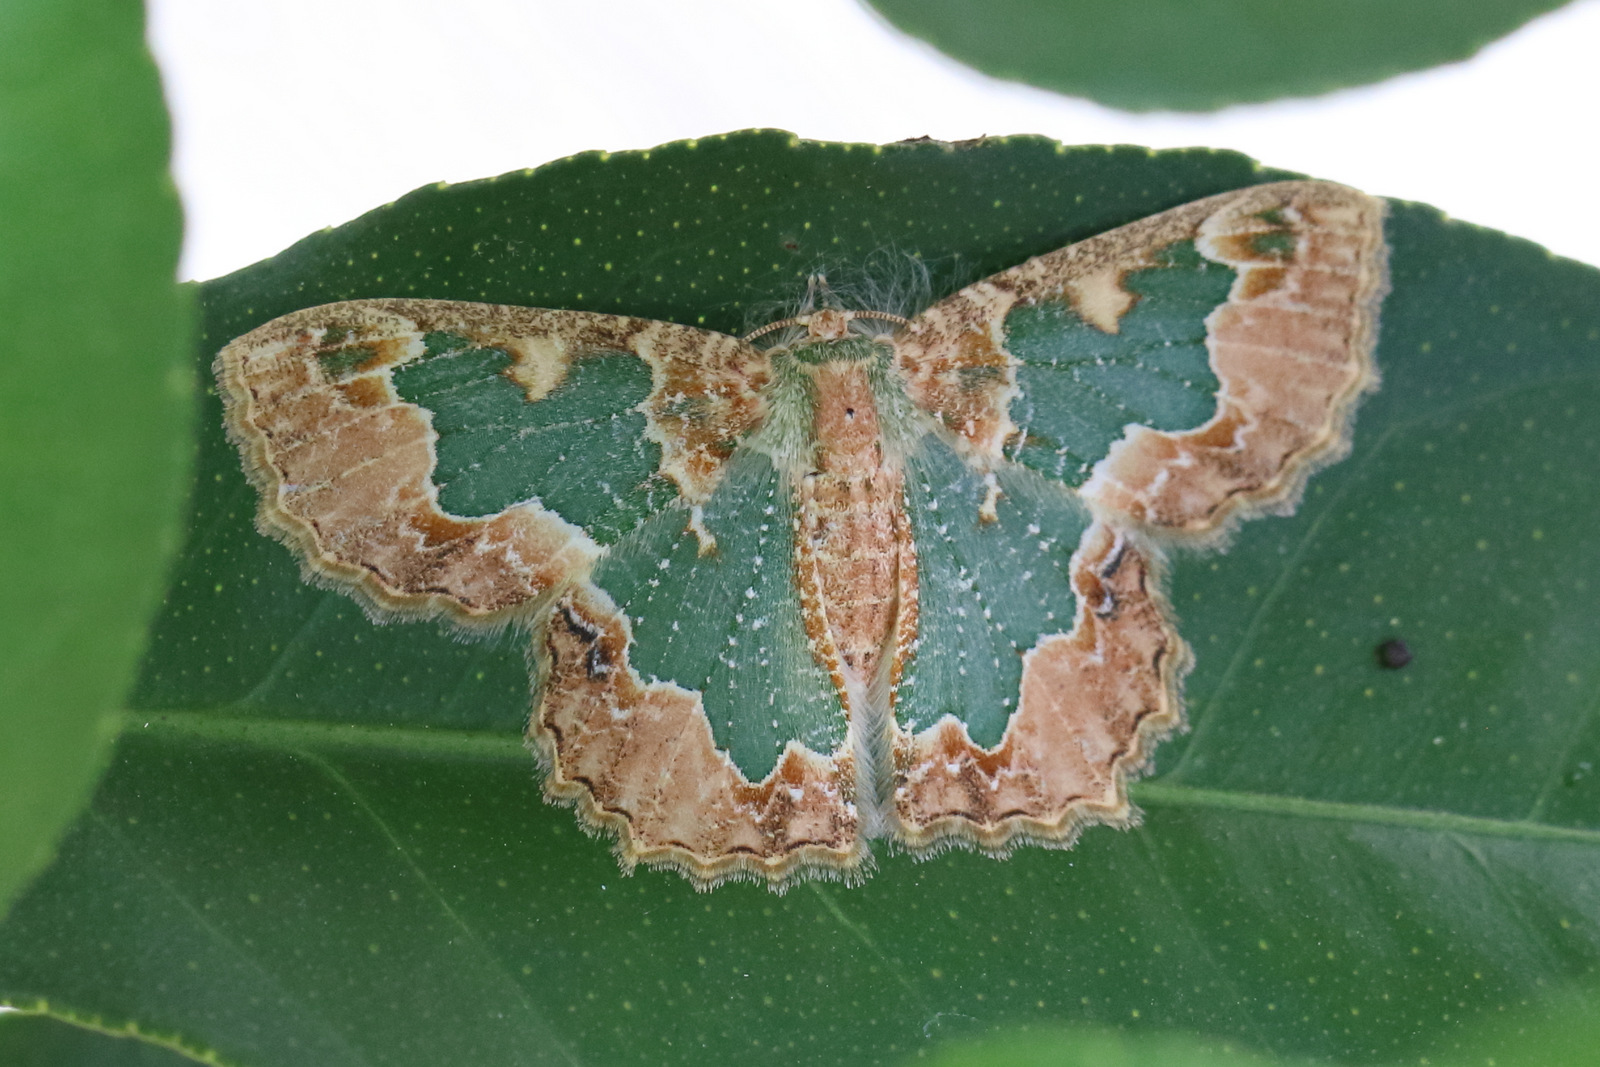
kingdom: Animalia
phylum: Arthropoda
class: Insecta
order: Lepidoptera
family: Geometridae
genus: Eucyclodes
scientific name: Eucyclodes pieroides
